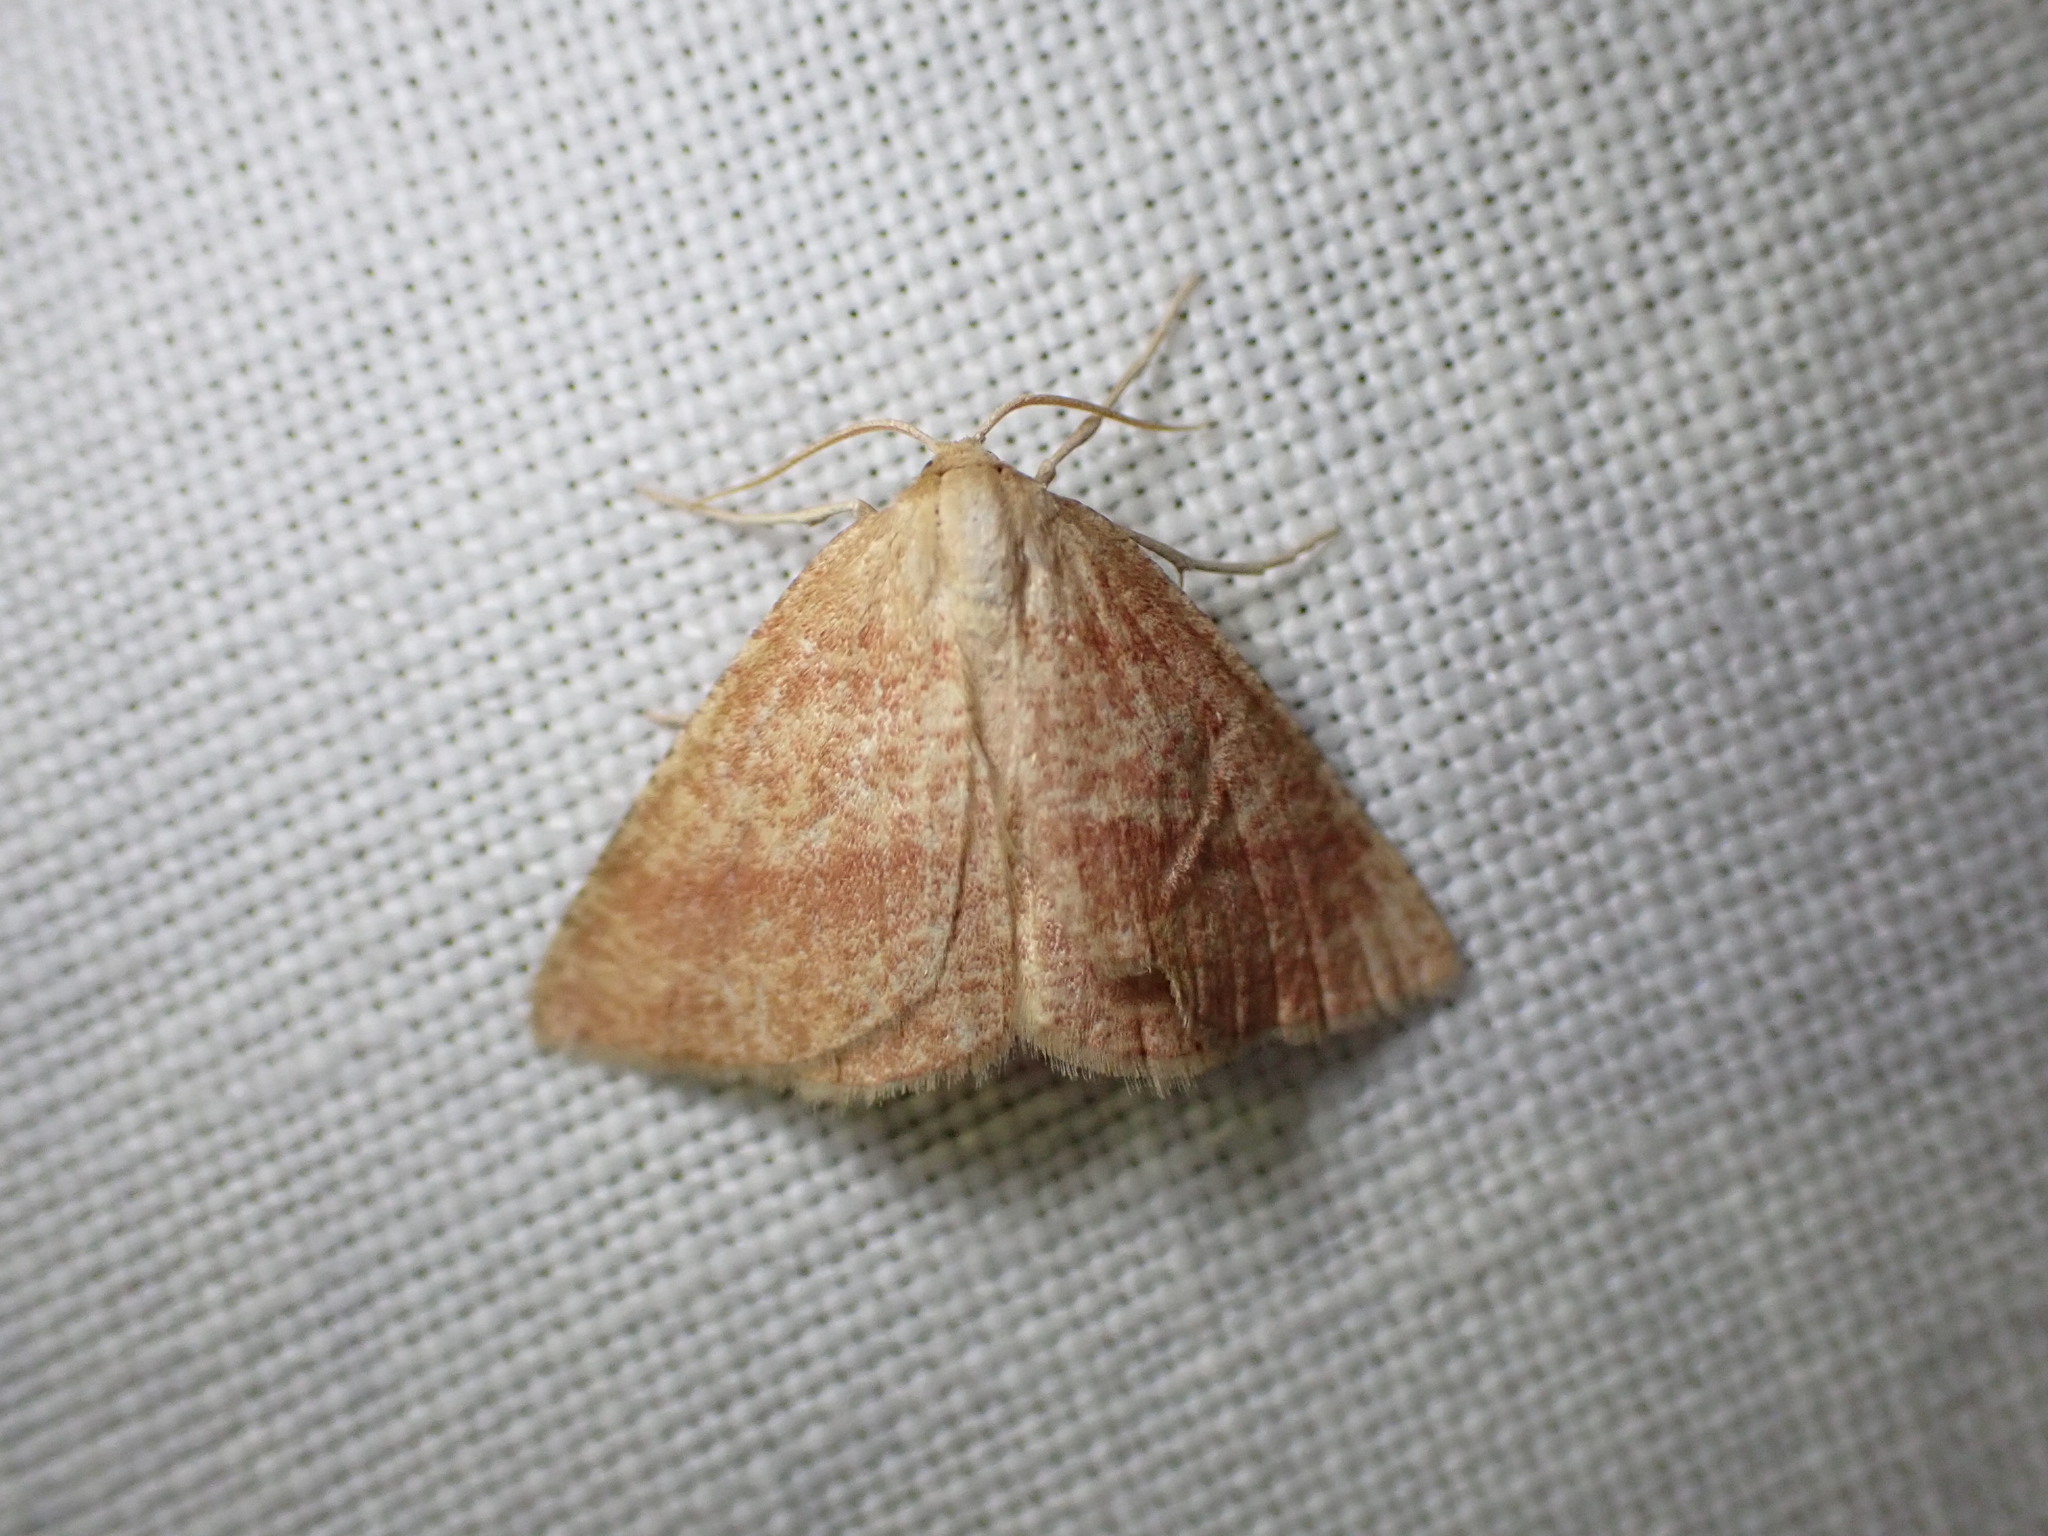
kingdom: Animalia
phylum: Arthropoda
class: Insecta
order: Lepidoptera
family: Geometridae
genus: Aplasta
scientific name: Aplasta ononaria
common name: Rest harrow
